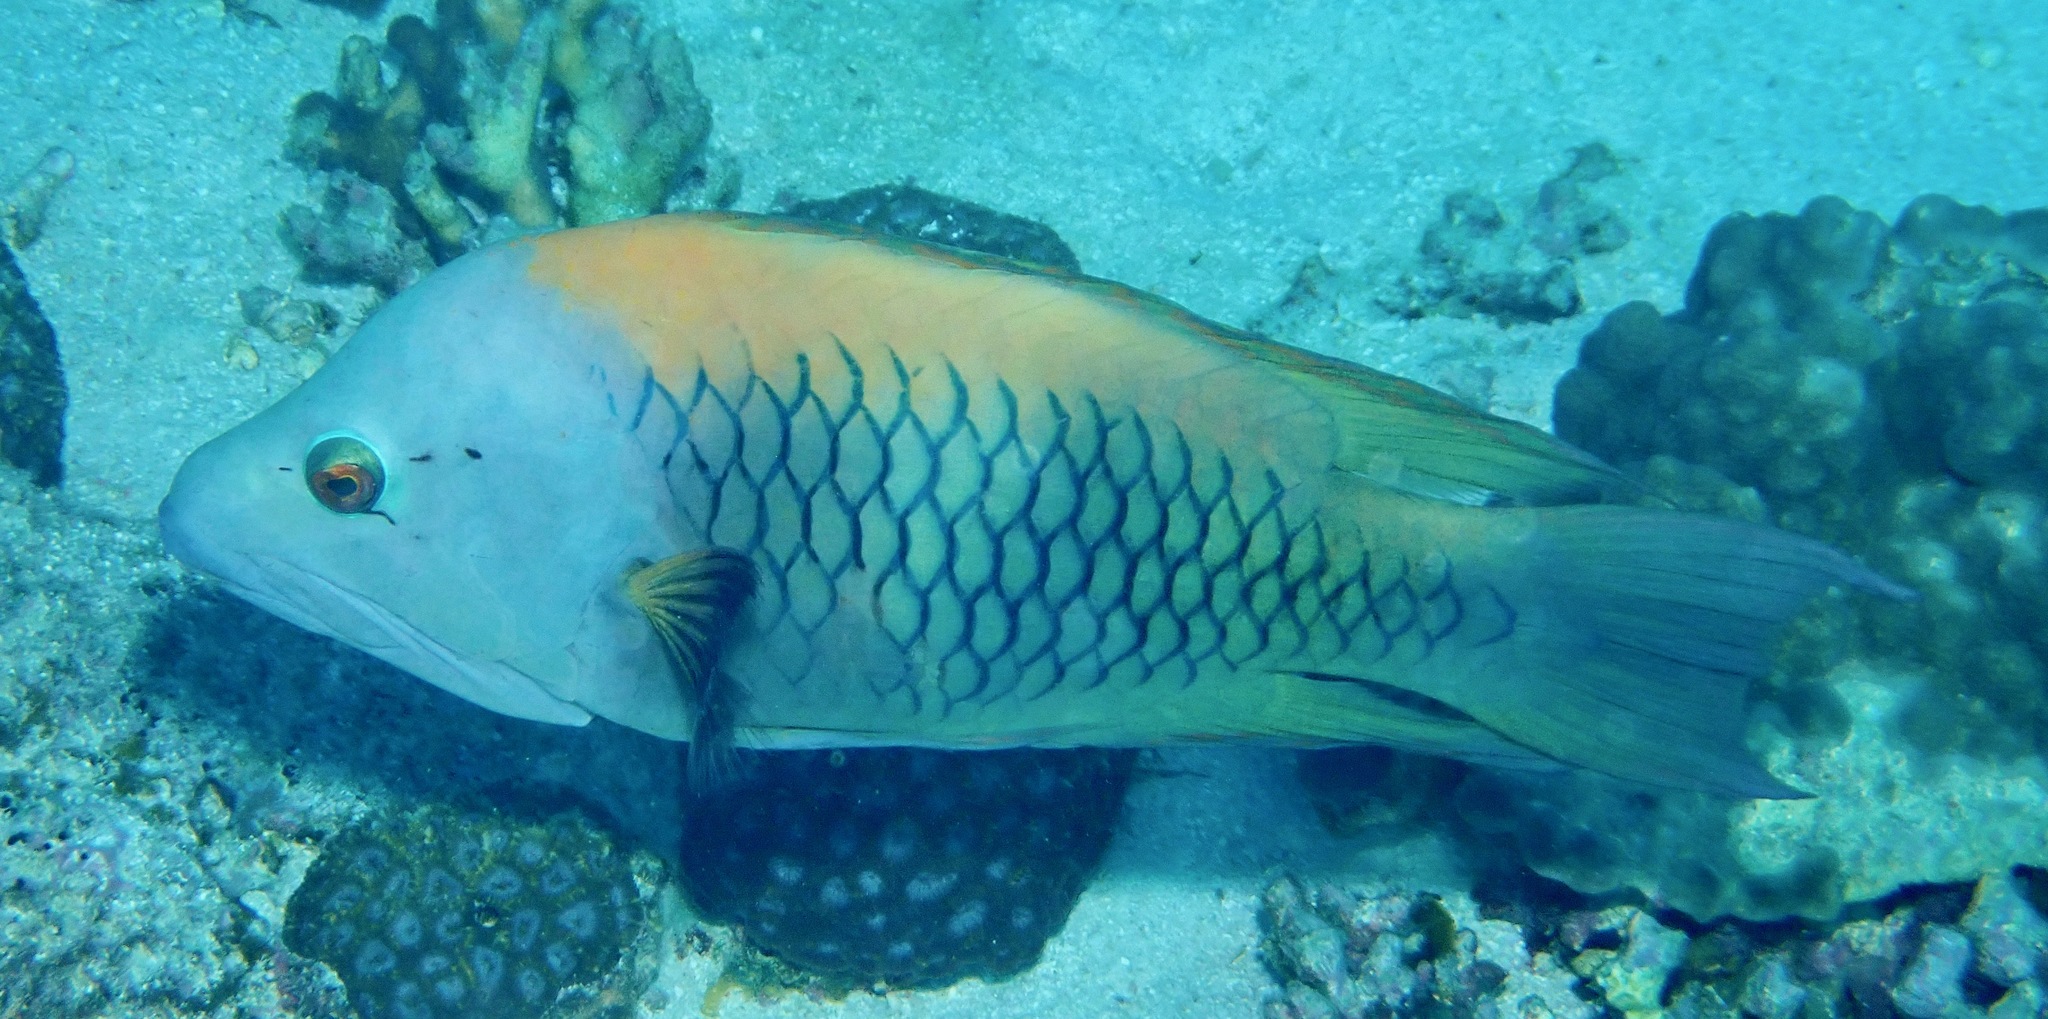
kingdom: Animalia
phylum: Chordata
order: Perciformes
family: Labridae
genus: Epibulus
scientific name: Epibulus insidiator
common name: Slingjaw wrasse
